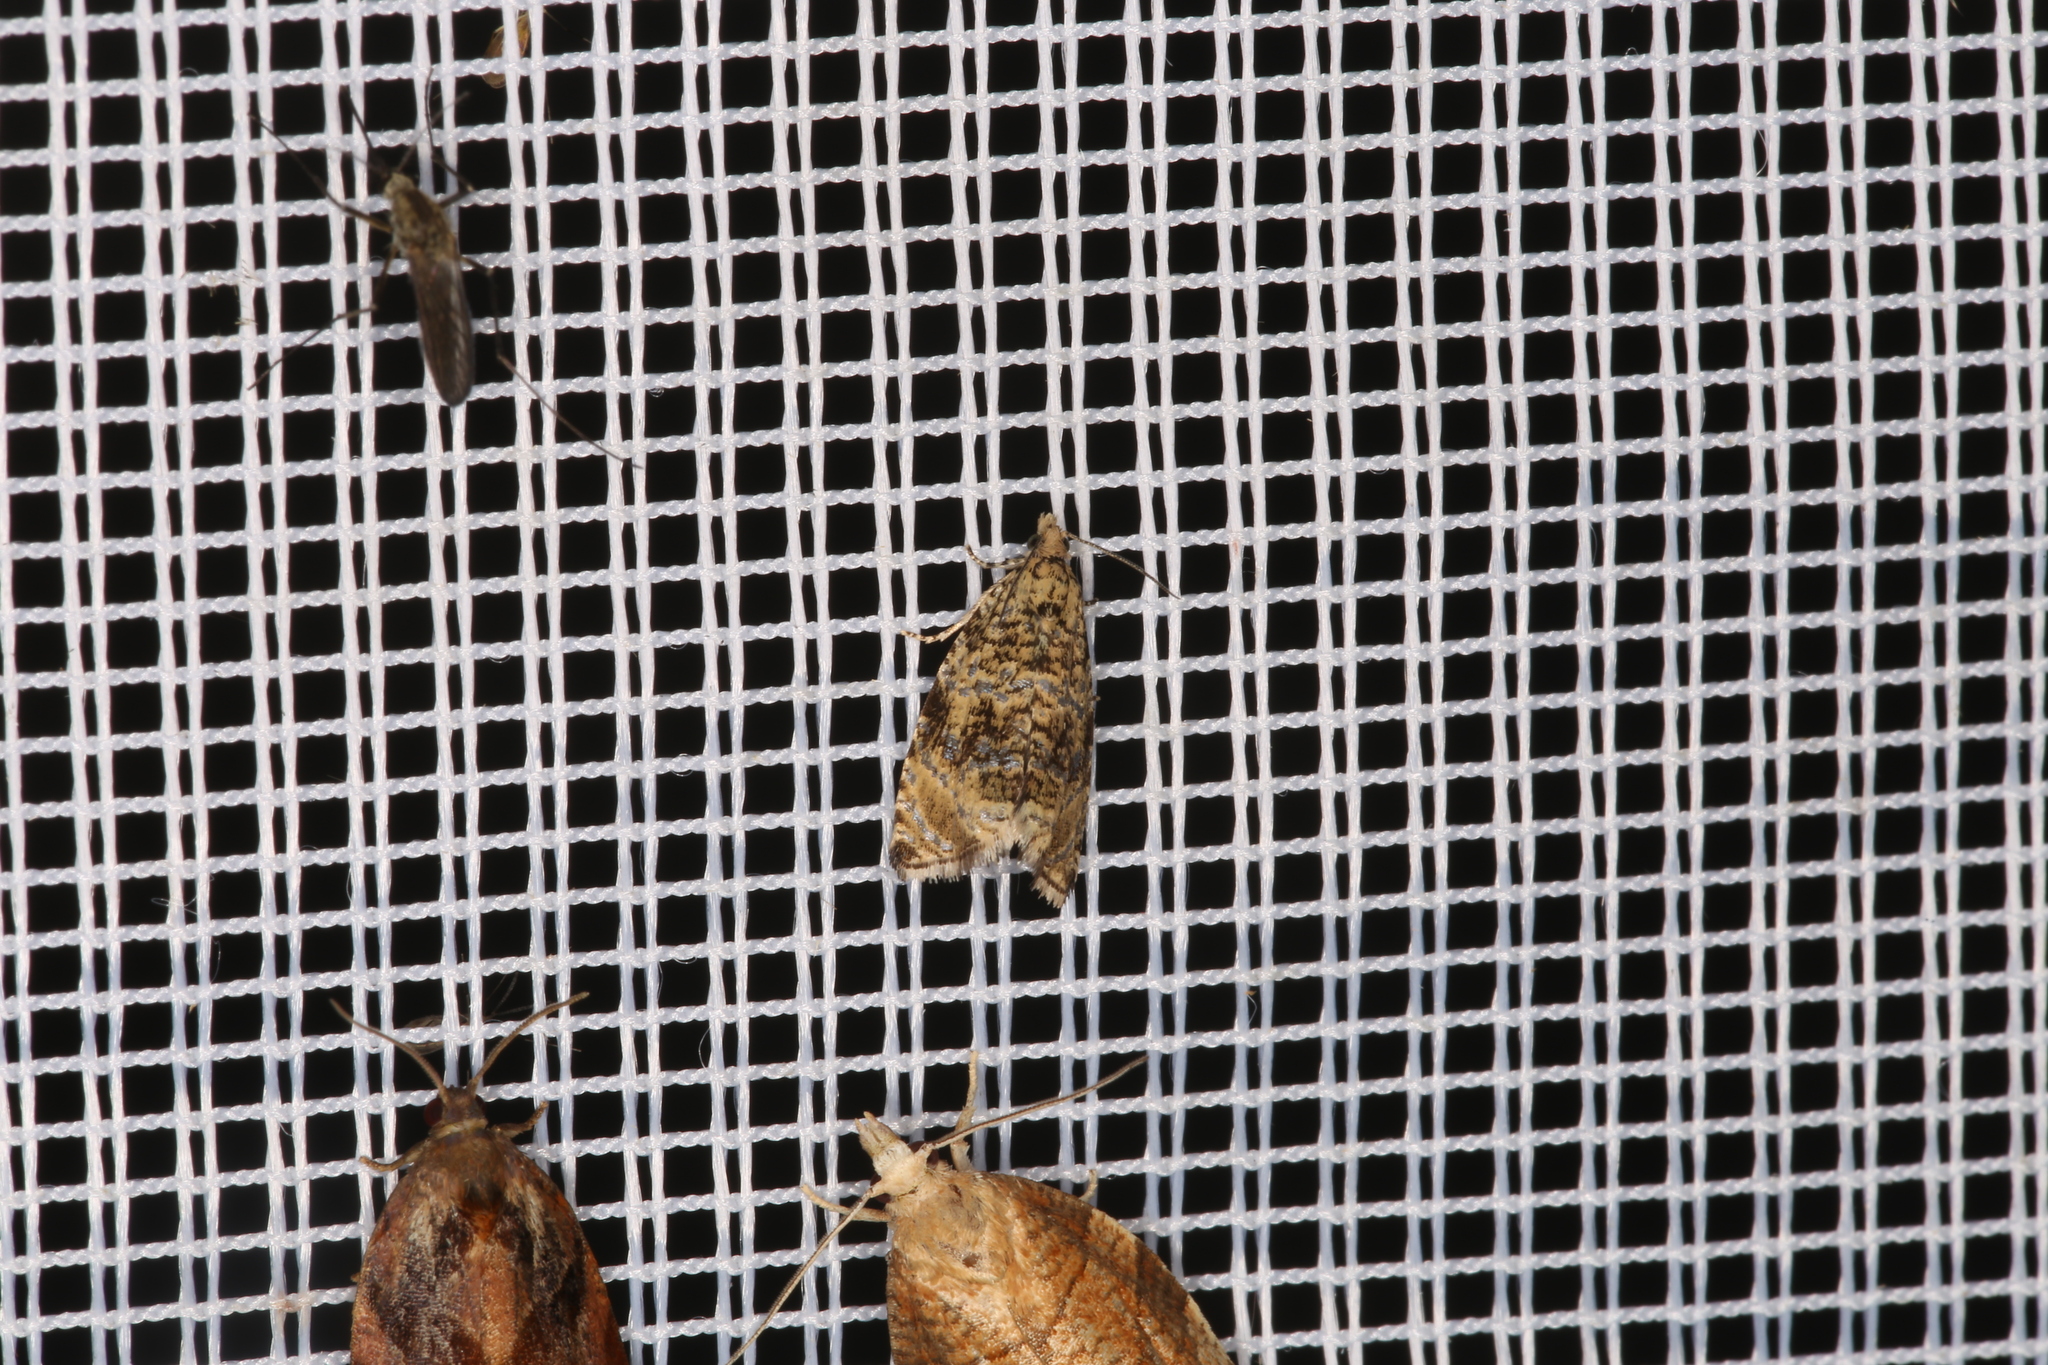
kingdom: Animalia
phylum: Arthropoda
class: Insecta
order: Lepidoptera
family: Tortricidae
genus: Syricoris
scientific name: Syricoris lacunana
